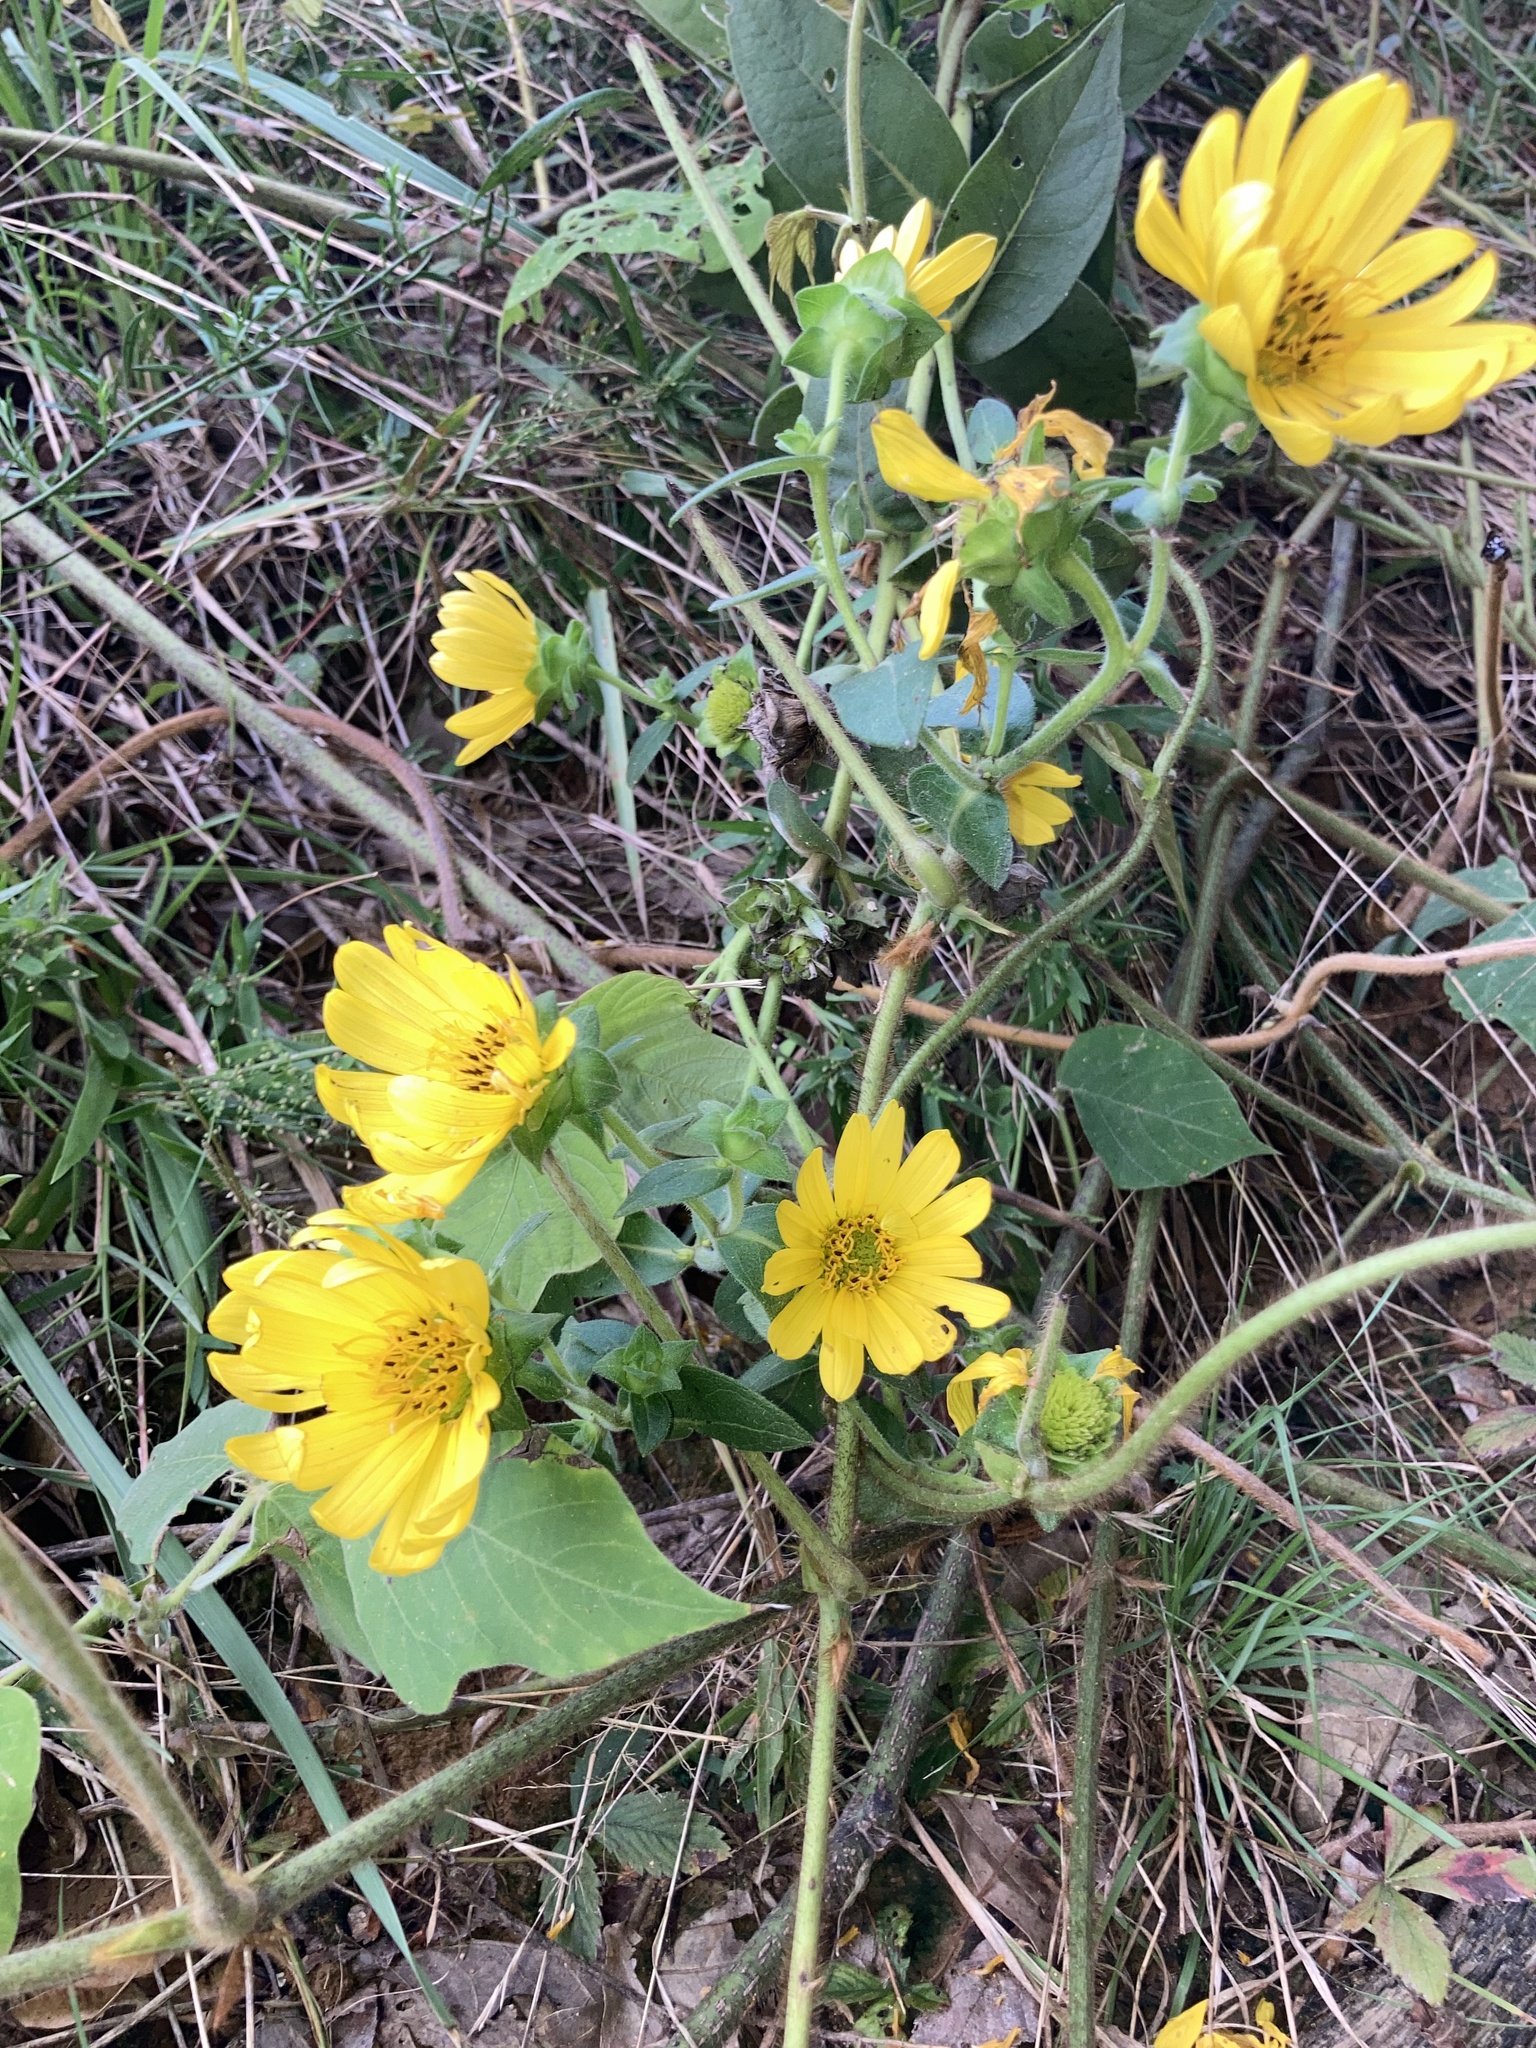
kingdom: Plantae
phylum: Tracheophyta
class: Magnoliopsida
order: Asterales
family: Asteraceae
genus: Silphium
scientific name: Silphium integrifolium
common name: Whole-leaf rosinweed
